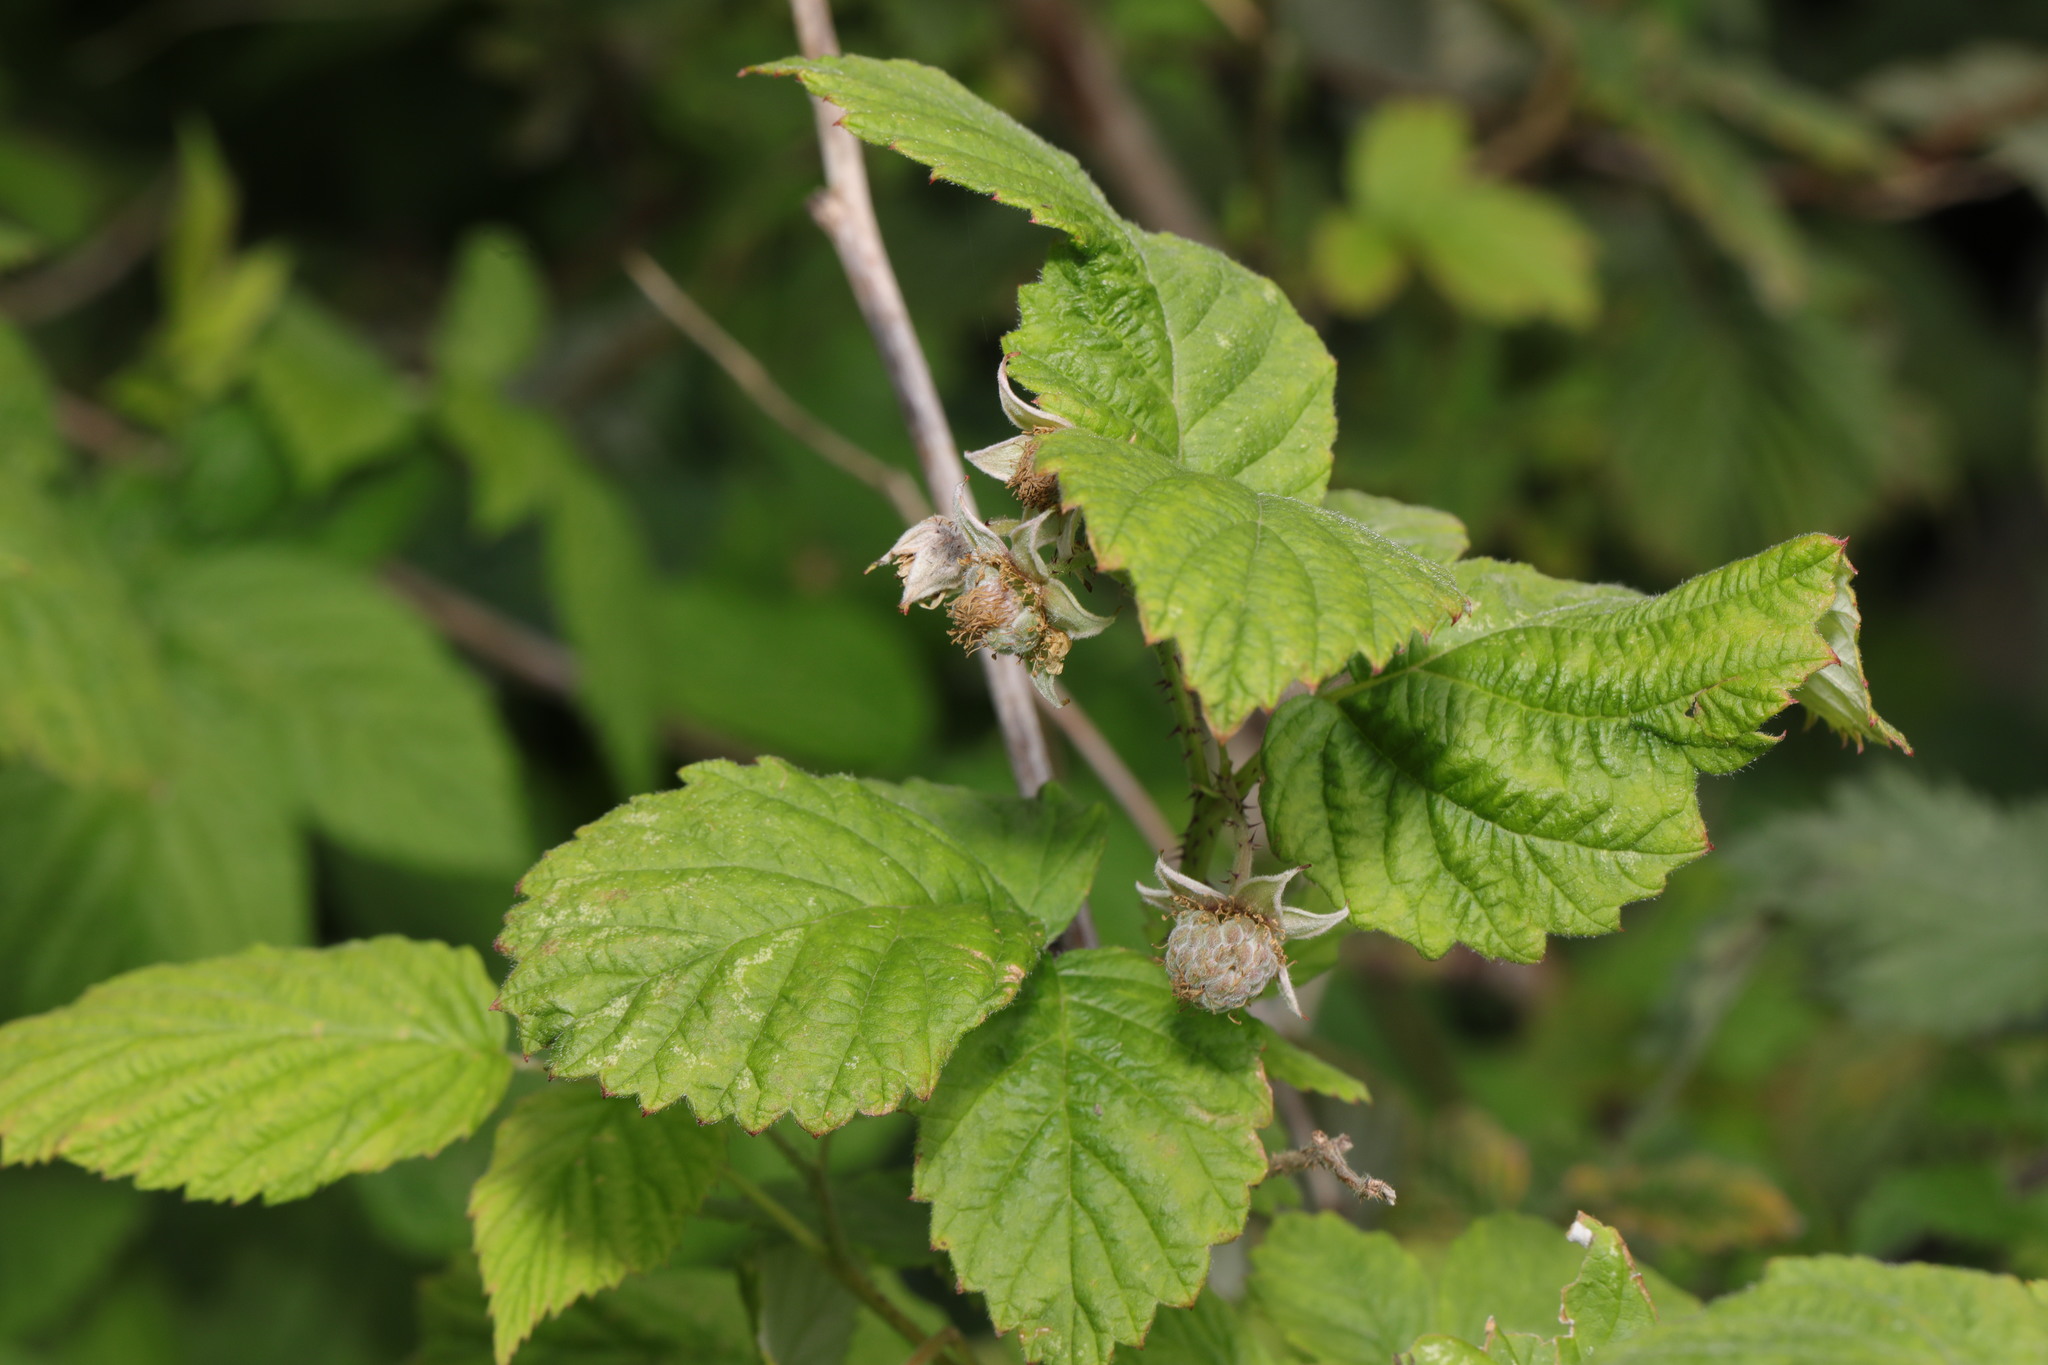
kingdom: Plantae
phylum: Tracheophyta
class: Magnoliopsida
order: Rosales
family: Rosaceae
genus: Rubus
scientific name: Rubus idaeus
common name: Raspberry
